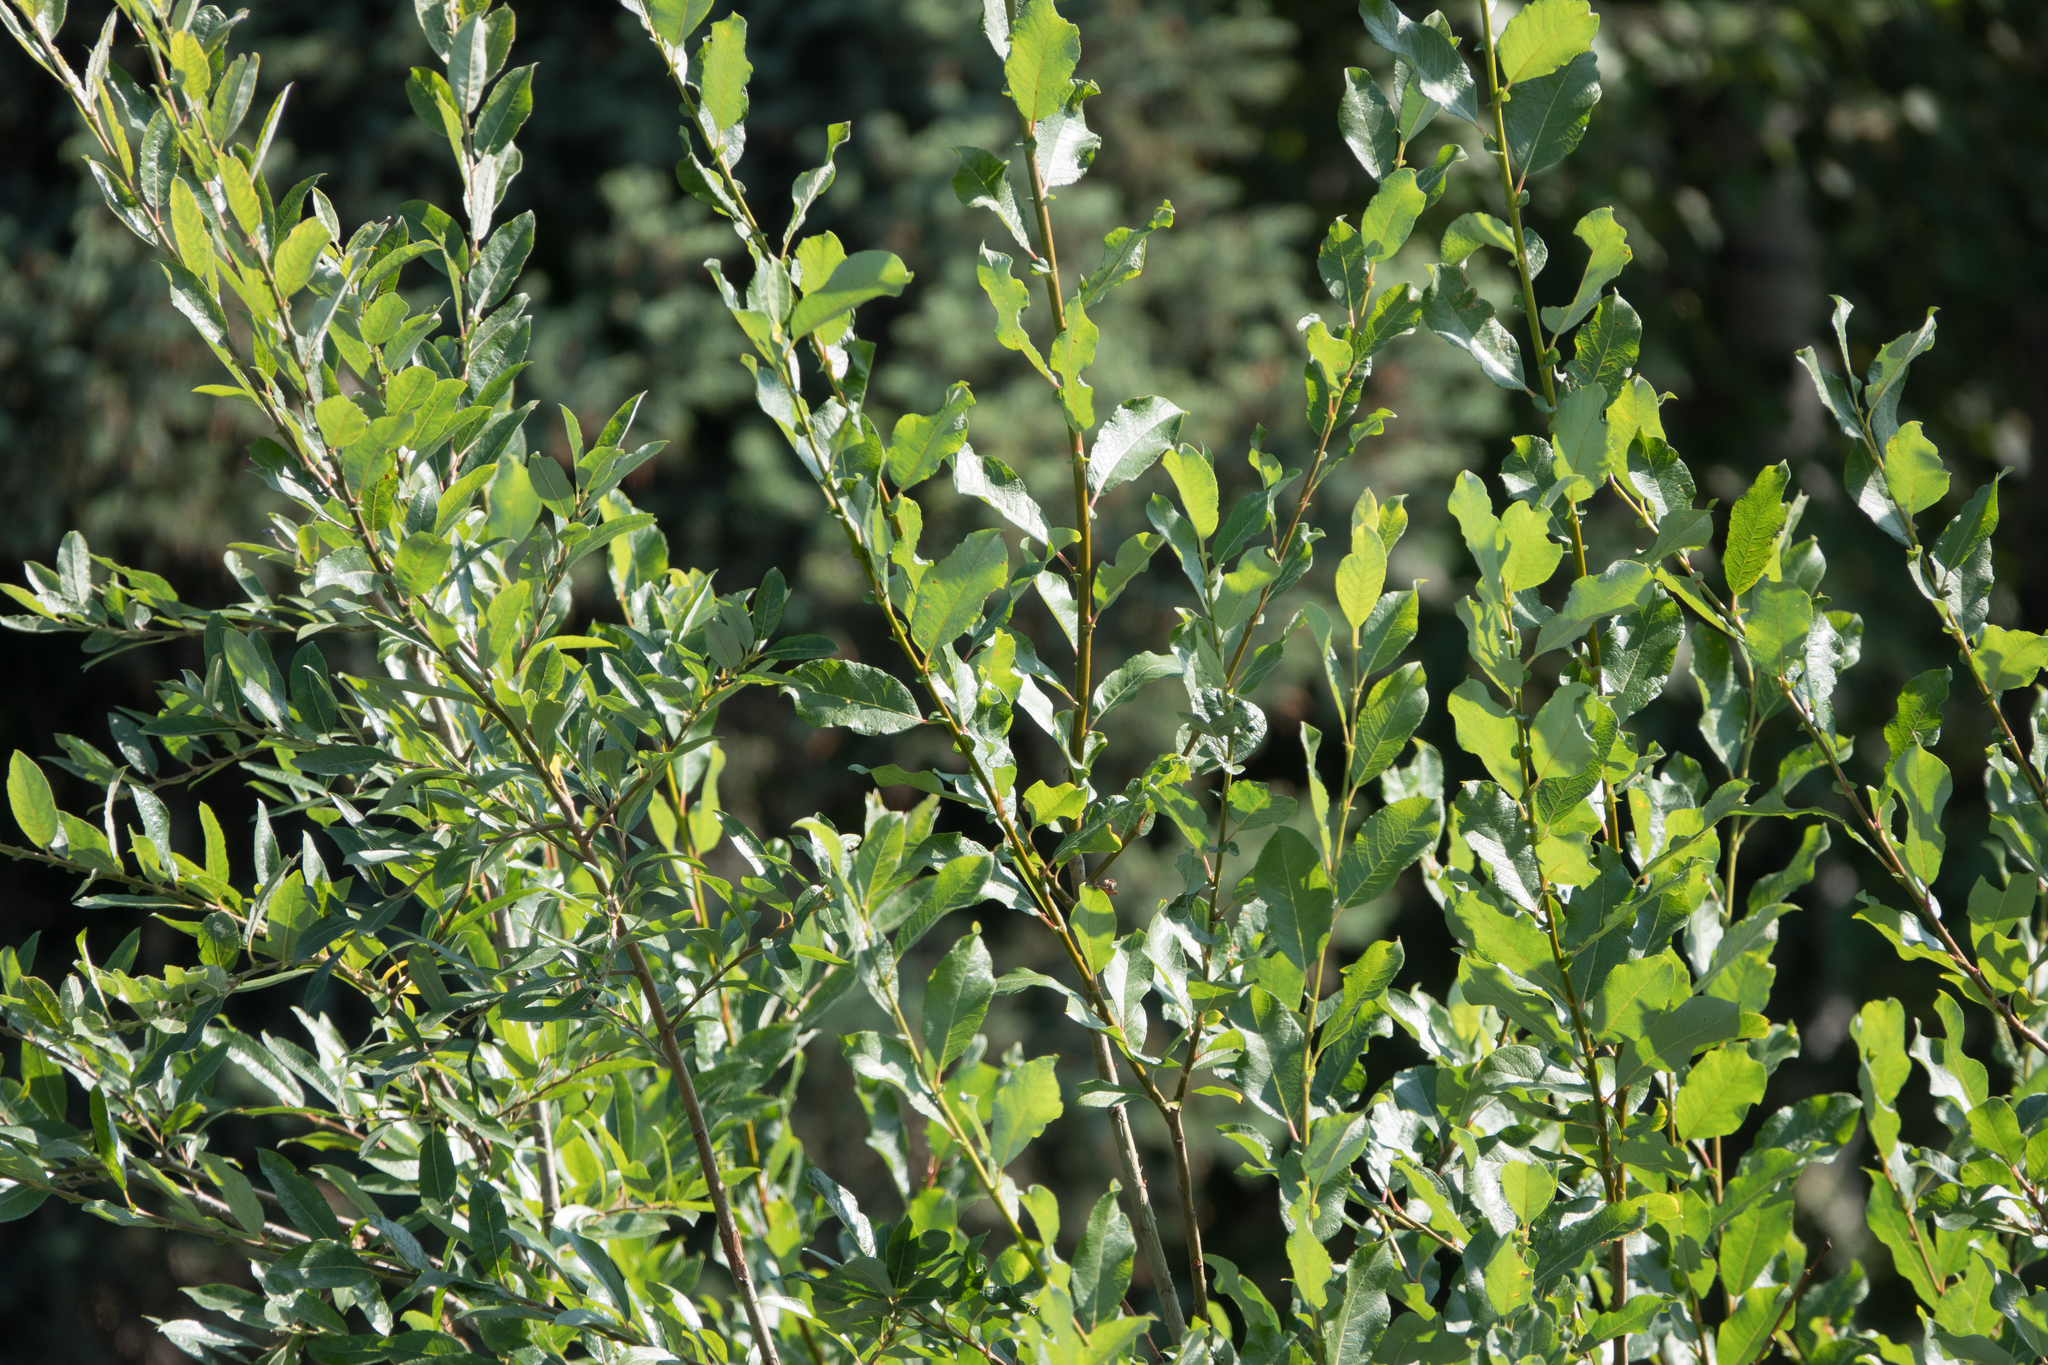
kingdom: Plantae
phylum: Tracheophyta
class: Magnoliopsida
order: Malpighiales
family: Salicaceae
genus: Salix
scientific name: Salix alaxensis
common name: Feltleaf willow
